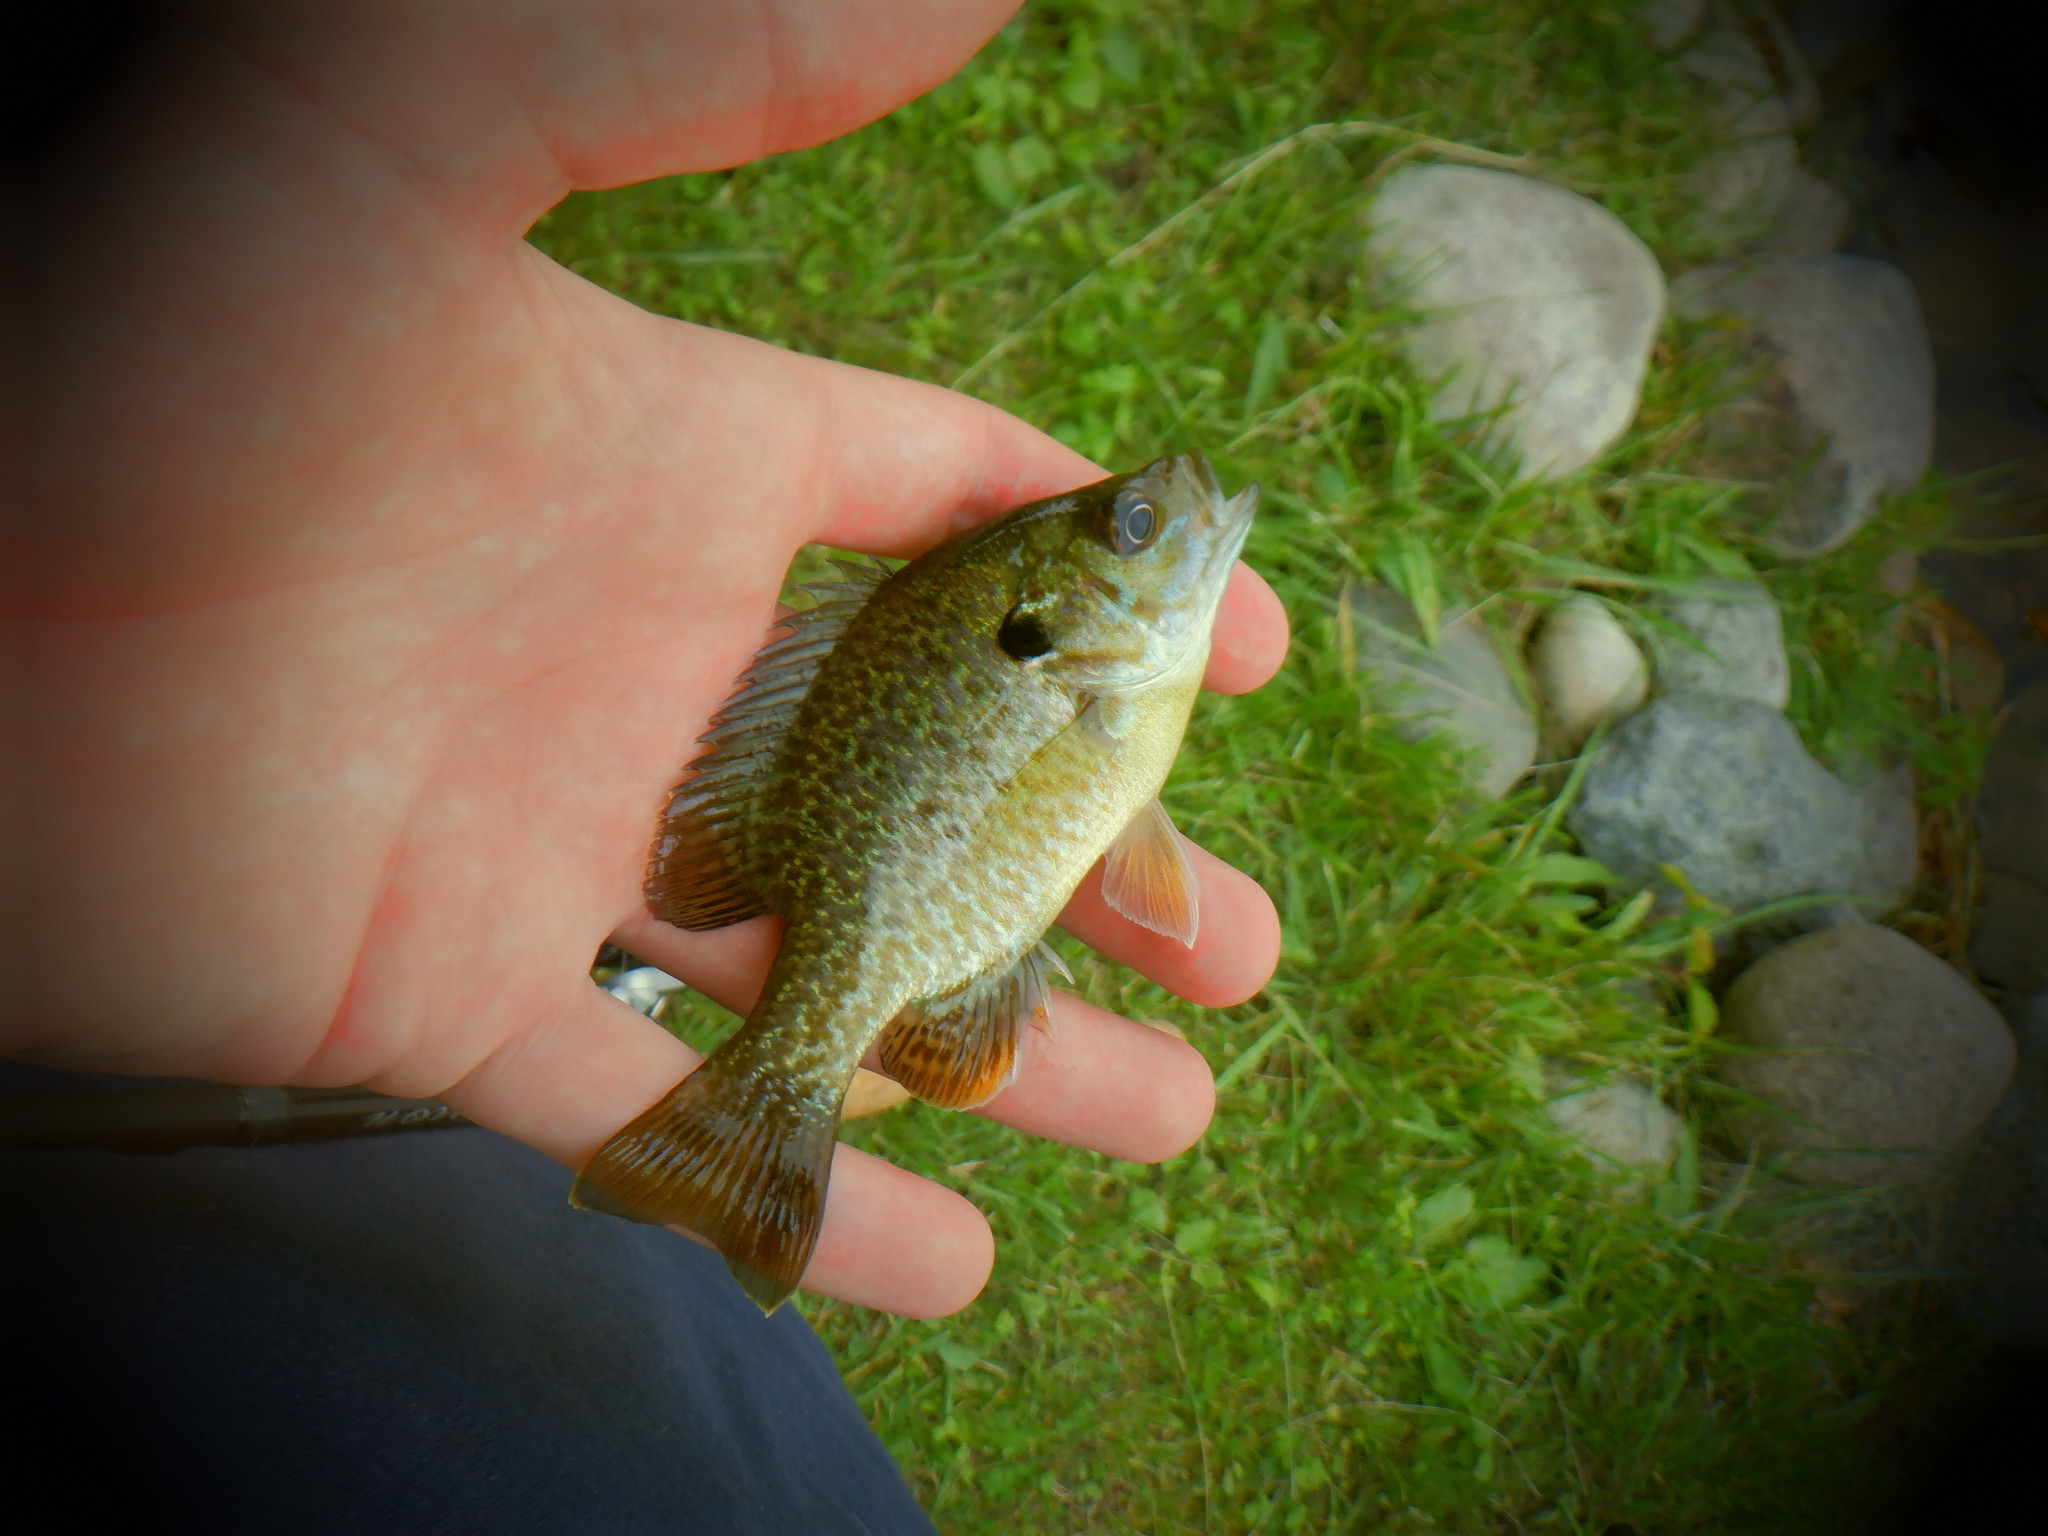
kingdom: Animalia
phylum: Chordata
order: Perciformes
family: Centrarchidae
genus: Lepomis
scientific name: Lepomis
